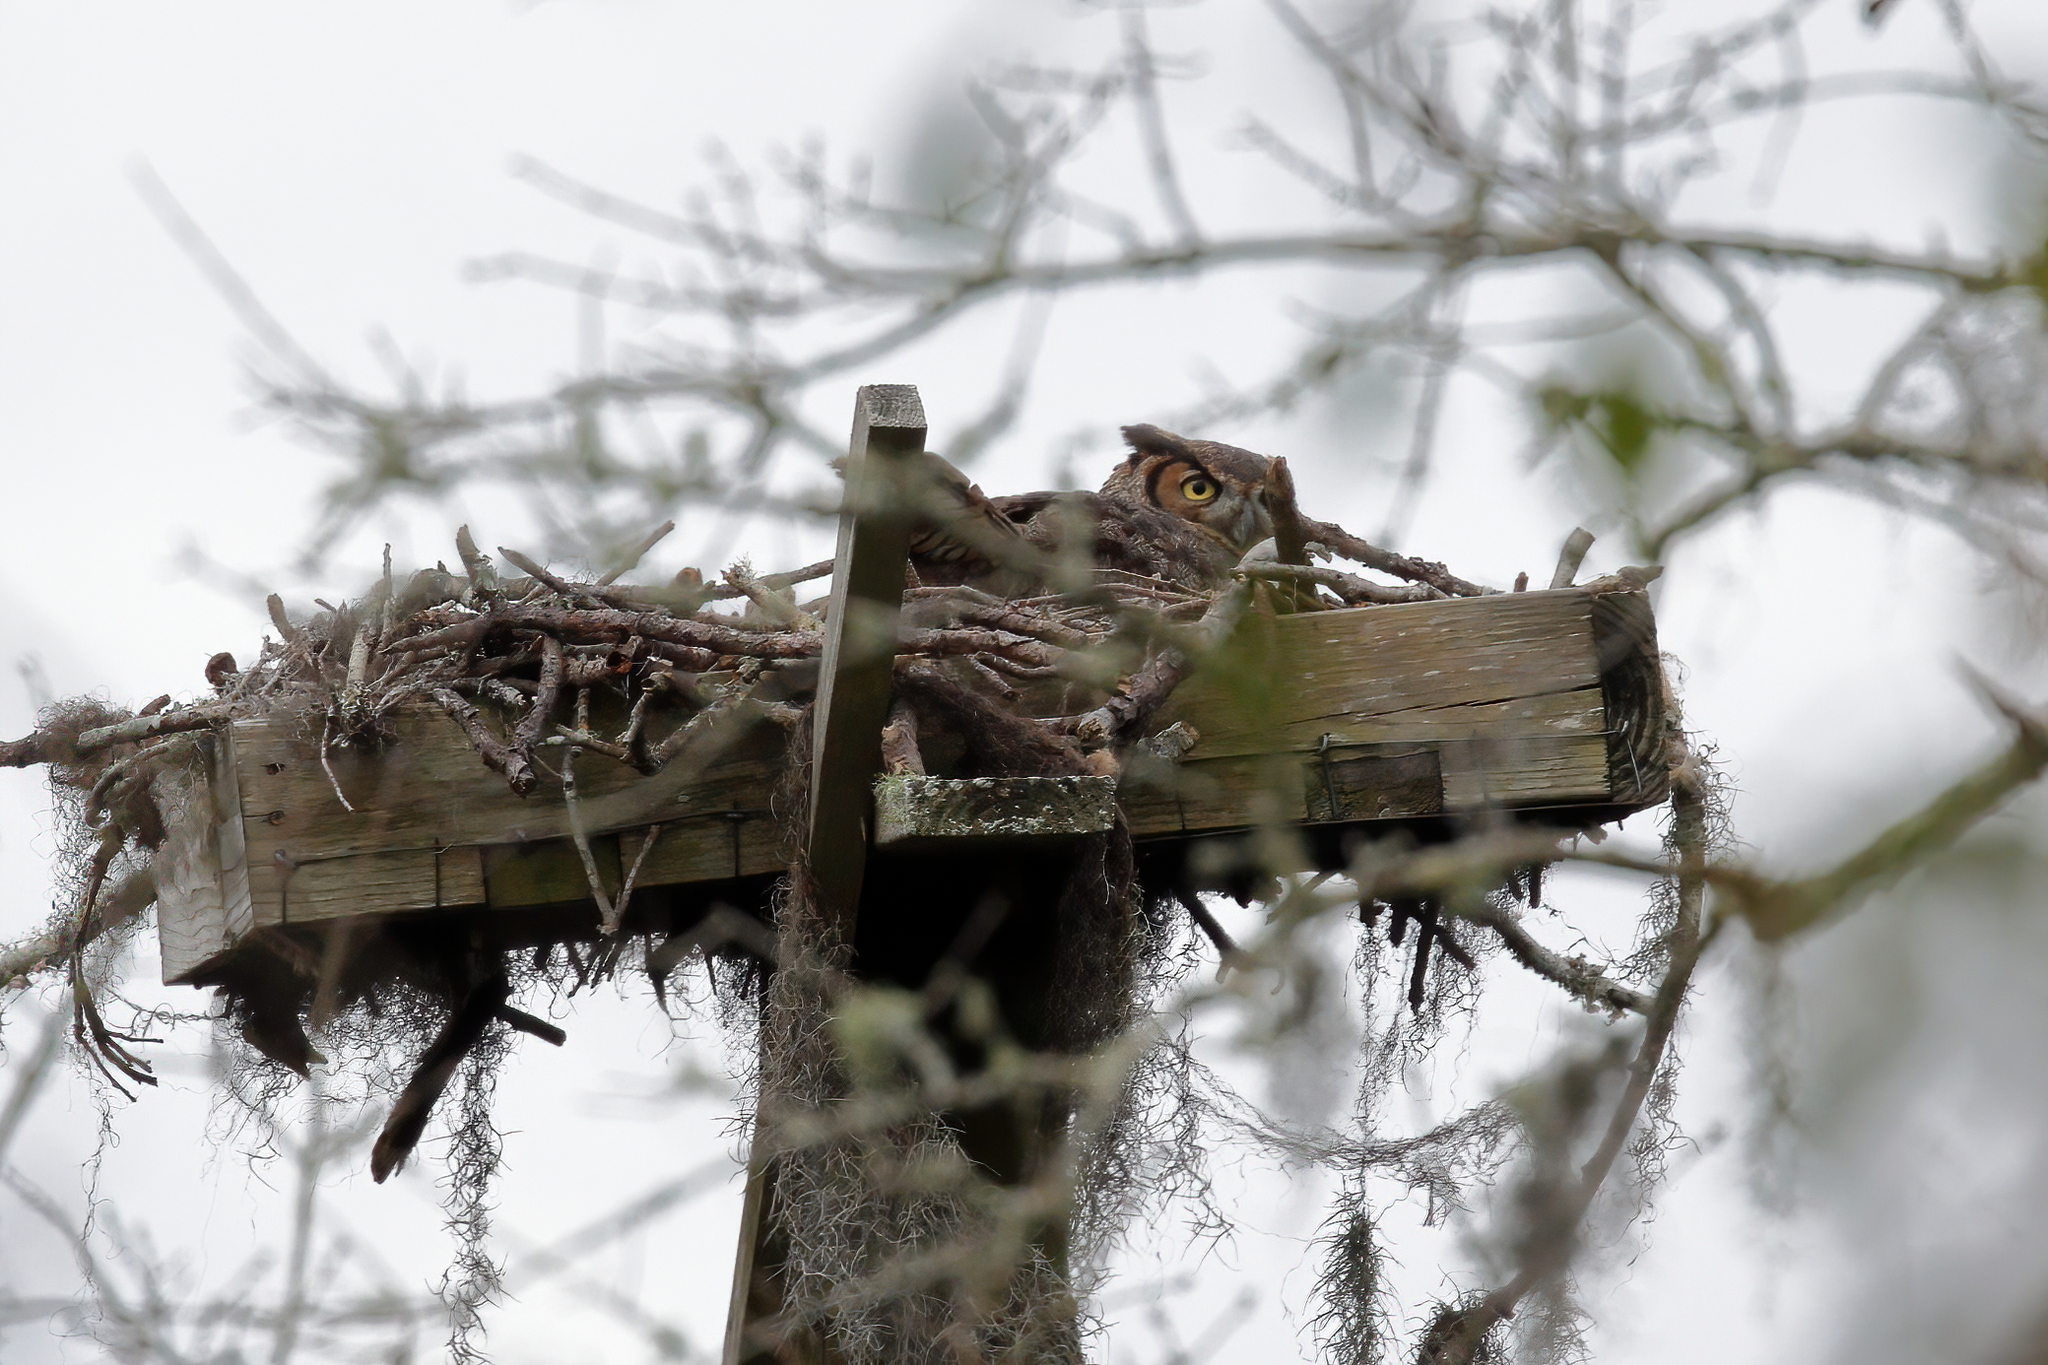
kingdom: Animalia
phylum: Chordata
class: Aves
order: Strigiformes
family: Strigidae
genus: Bubo
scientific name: Bubo virginianus
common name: Great horned owl
